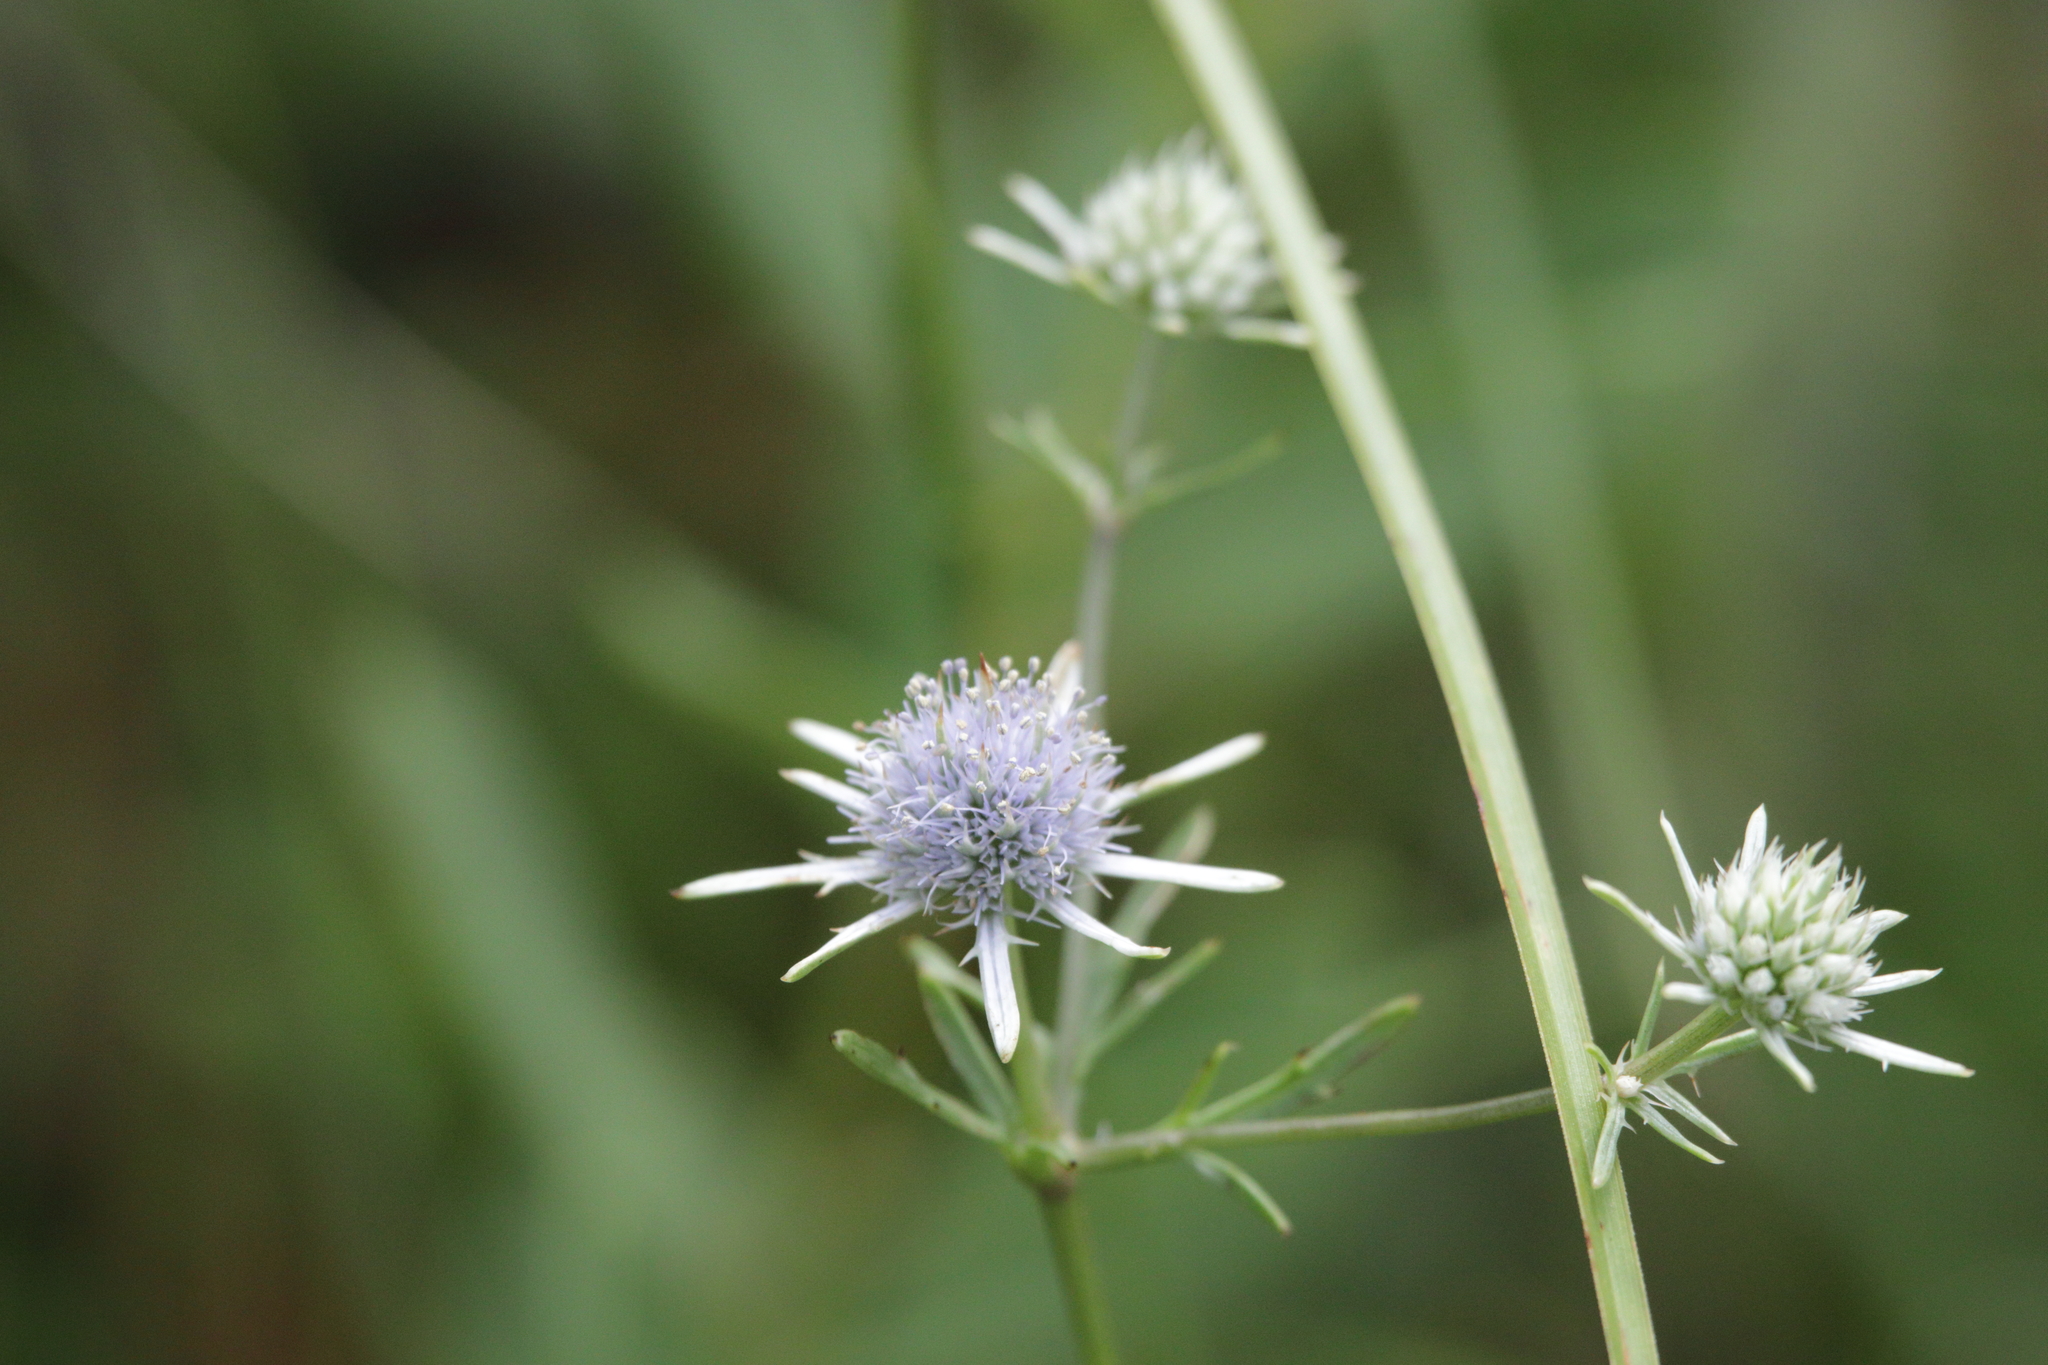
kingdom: Plantae
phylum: Tracheophyta
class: Magnoliopsida
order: Apiales
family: Apiaceae
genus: Eryngium
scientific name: Eryngium integrifolium
